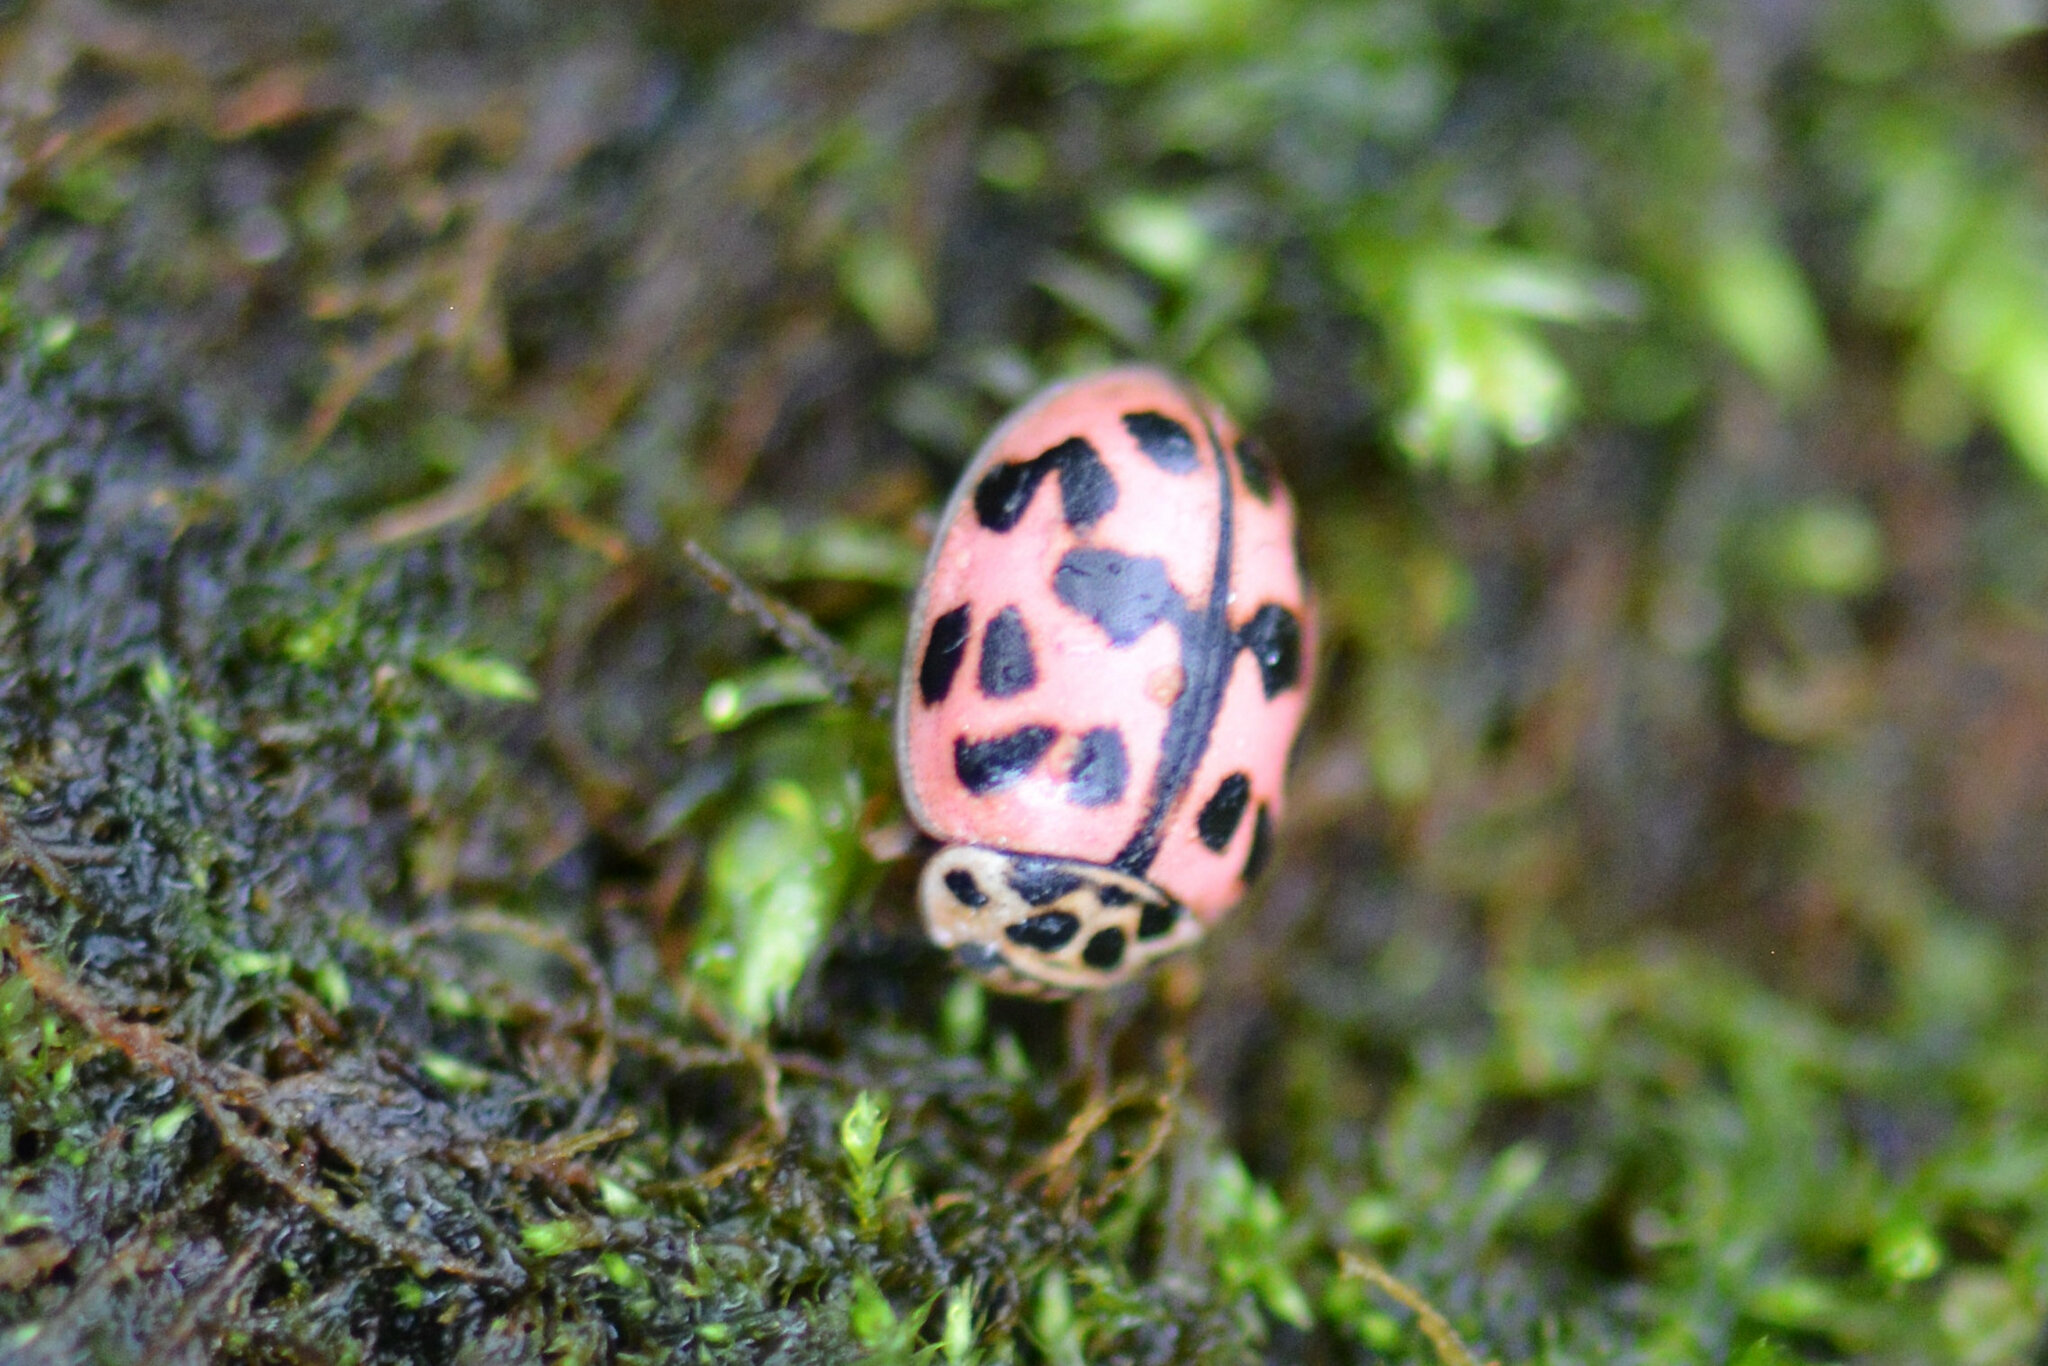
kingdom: Animalia
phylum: Arthropoda
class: Insecta
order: Coleoptera
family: Coccinellidae
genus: Oenopia
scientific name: Oenopia conglobata
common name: Ladybird beetle
